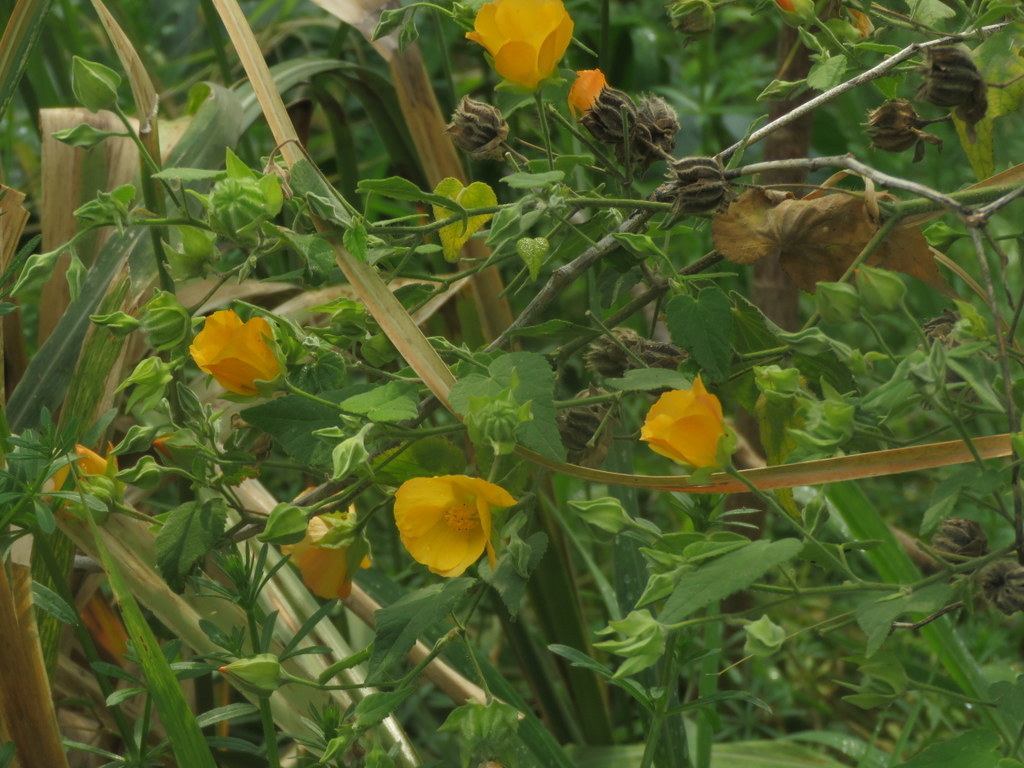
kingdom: Plantae
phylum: Tracheophyta
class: Magnoliopsida
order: Malvales
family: Malvaceae
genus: Abutilon
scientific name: Abutilon grandifolium
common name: Hairy abutilon
